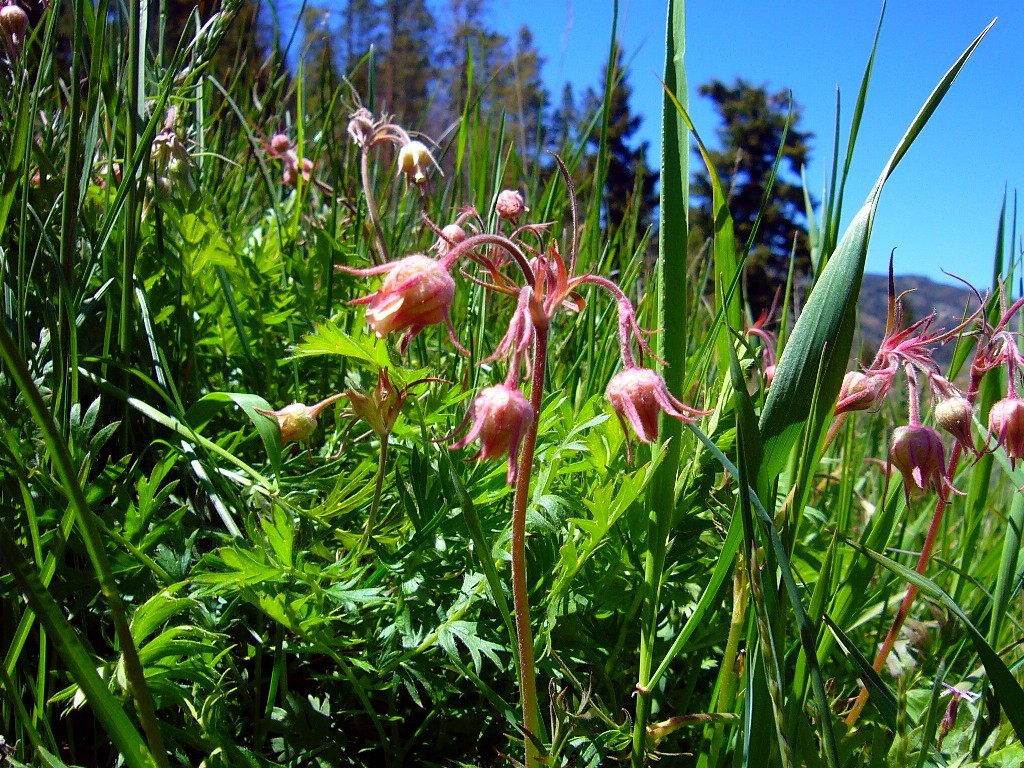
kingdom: Plantae
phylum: Tracheophyta
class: Magnoliopsida
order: Rosales
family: Rosaceae
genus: Geum
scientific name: Geum triflorum
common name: Old man's whiskers
